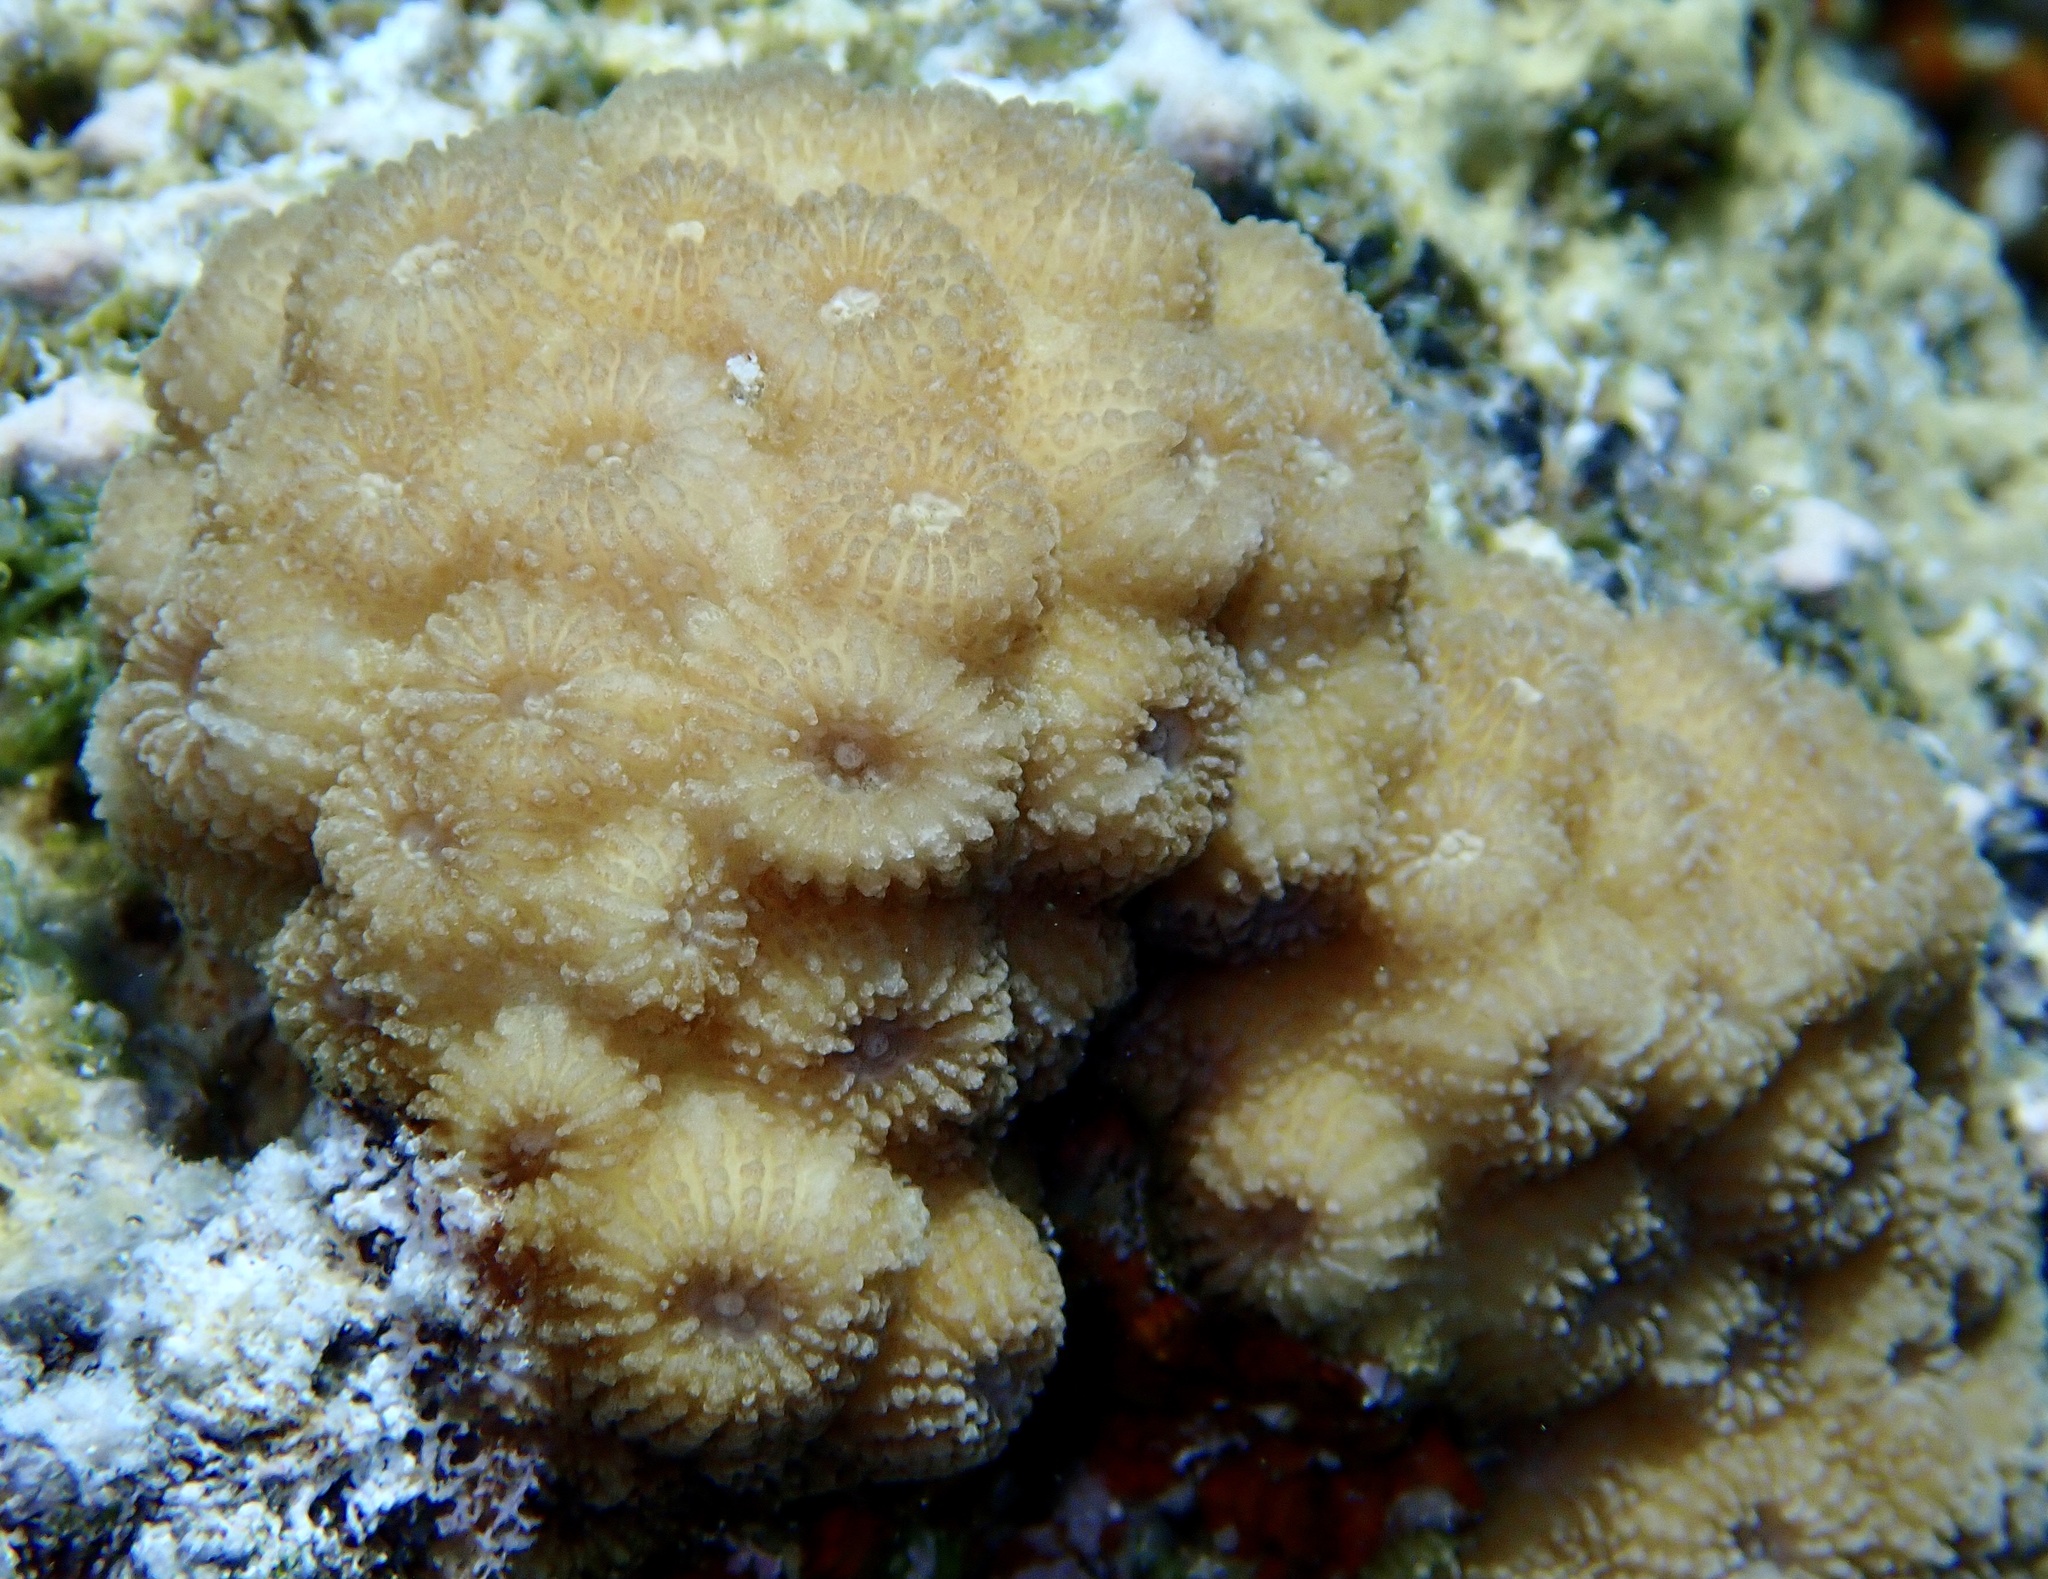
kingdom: Animalia
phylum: Cnidaria
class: Anthozoa
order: Scleractinia
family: Merulinidae
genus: Echinopora
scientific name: Echinopora forskaliana
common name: Hedgehog coral
